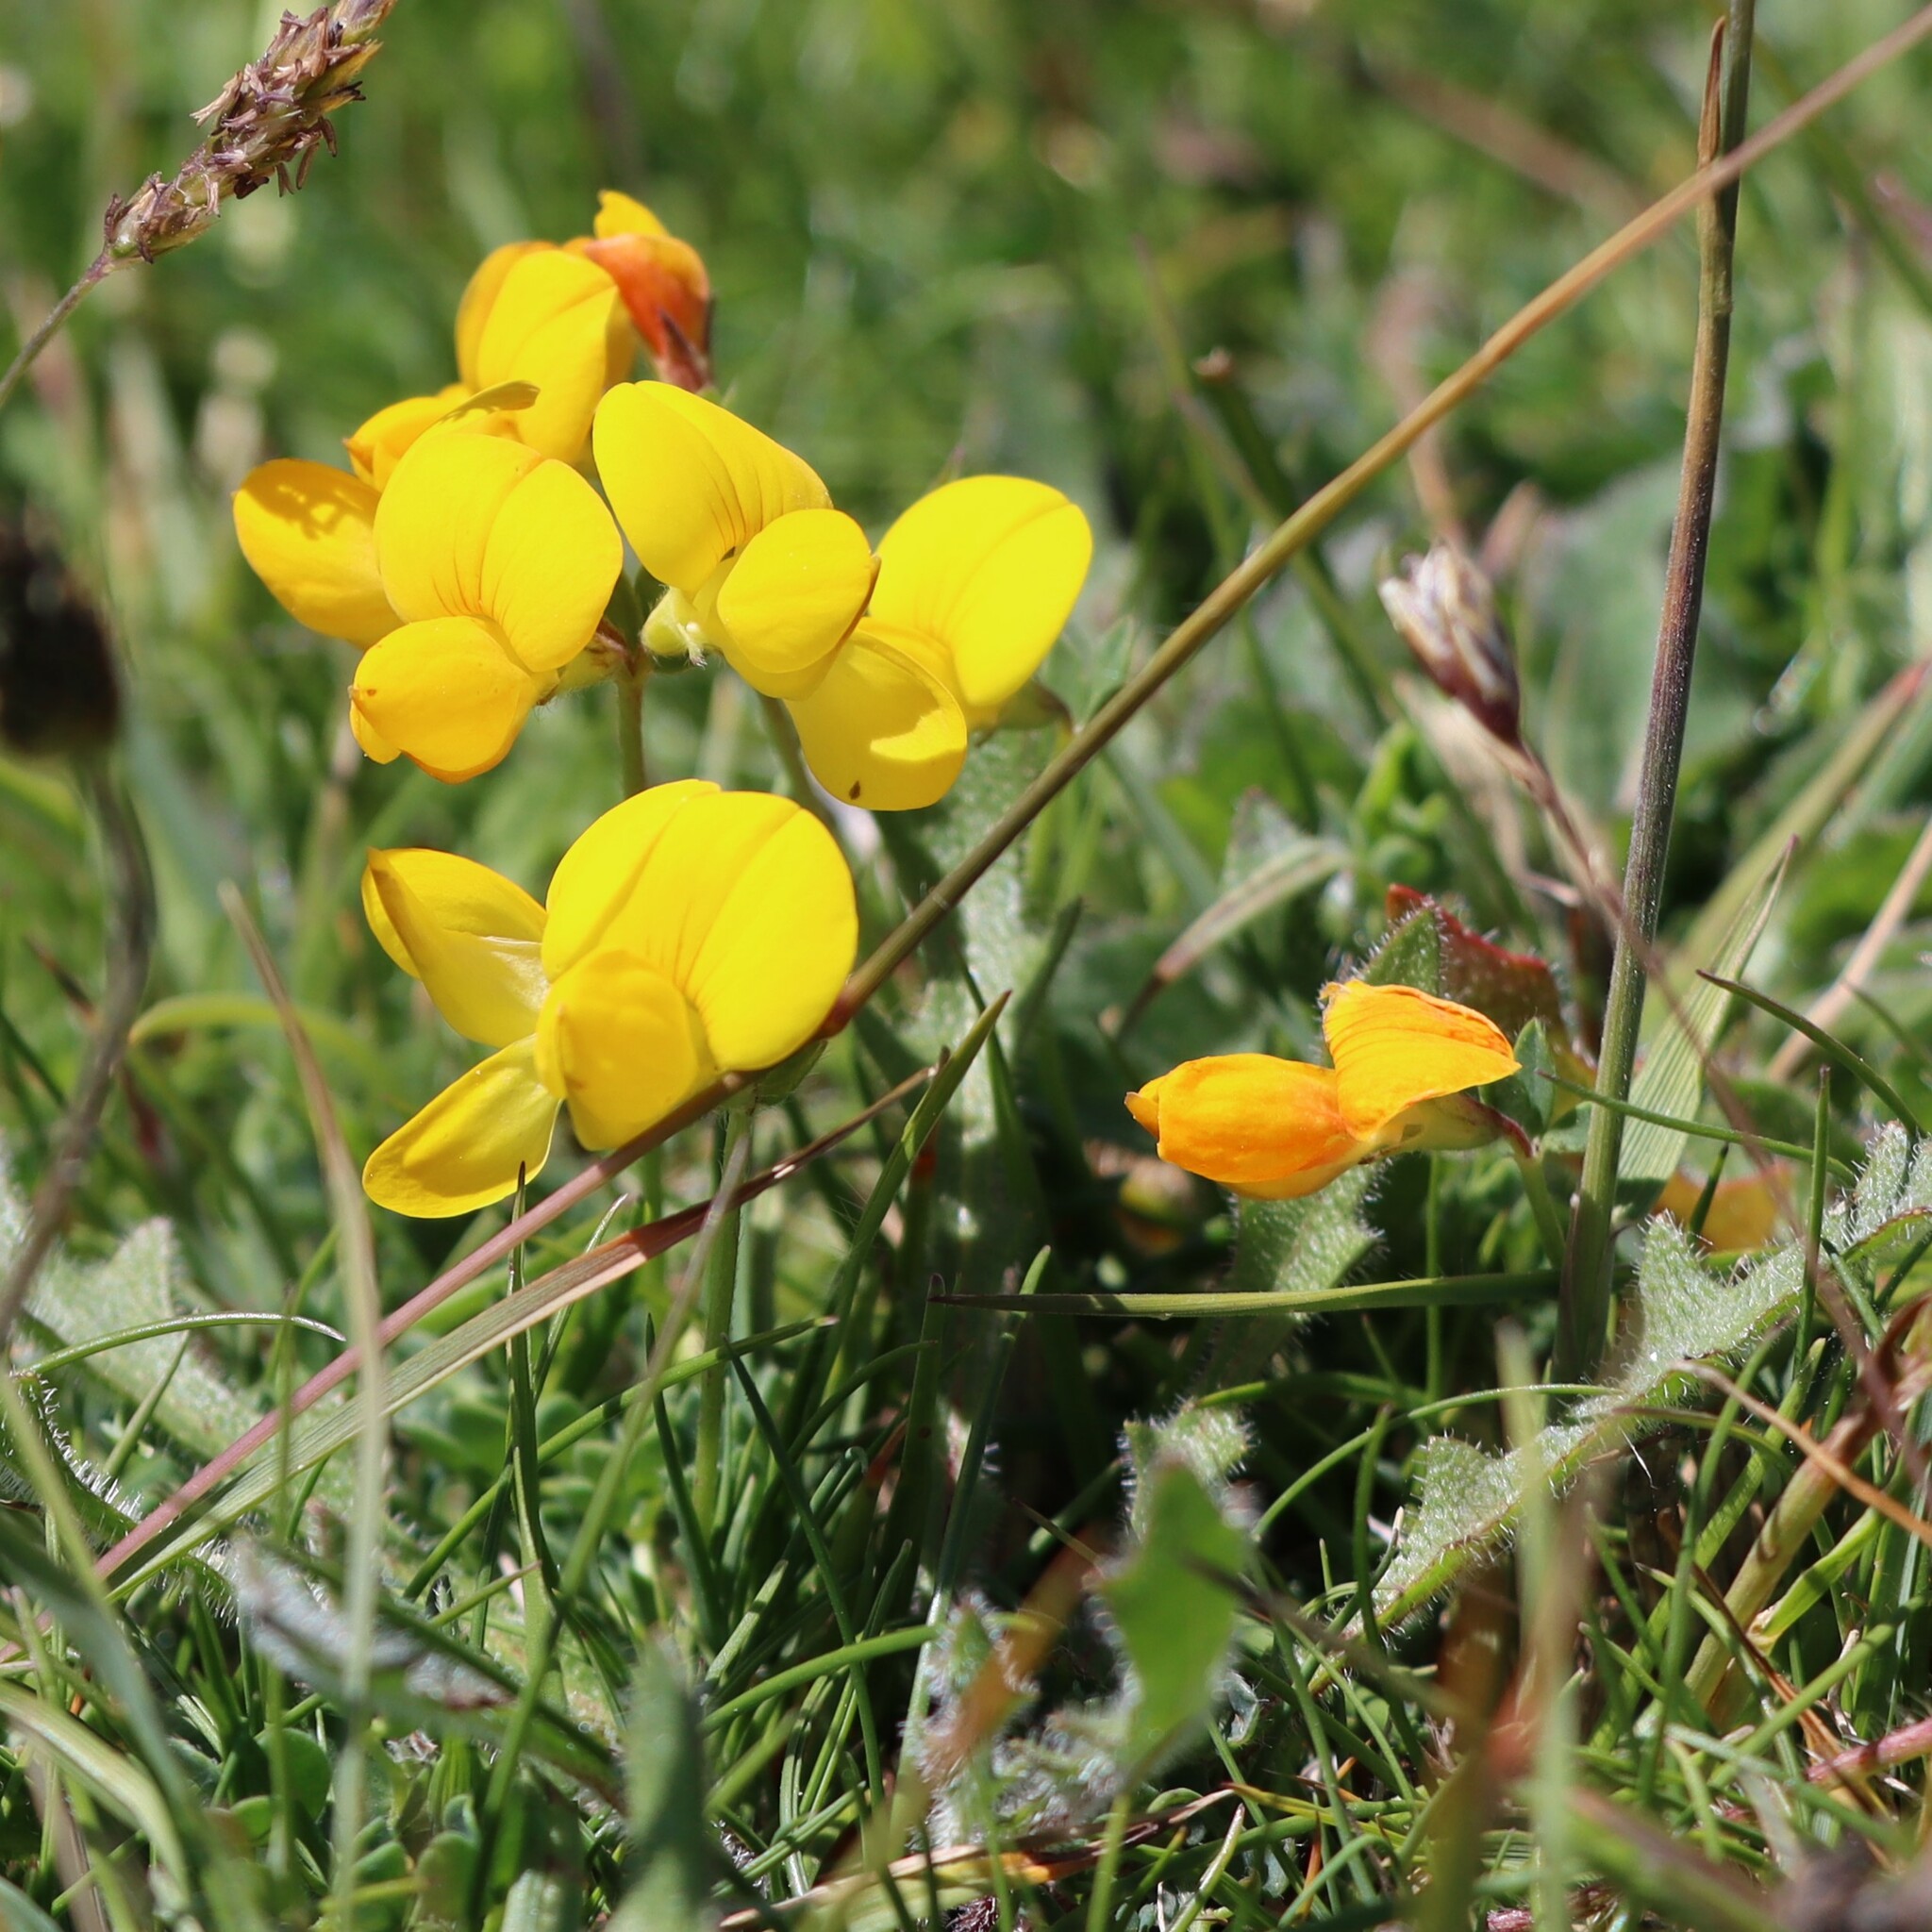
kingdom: Plantae
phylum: Tracheophyta
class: Magnoliopsida
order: Fabales
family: Fabaceae
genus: Lotus
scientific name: Lotus corniculatus
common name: Common bird's-foot-trefoil
